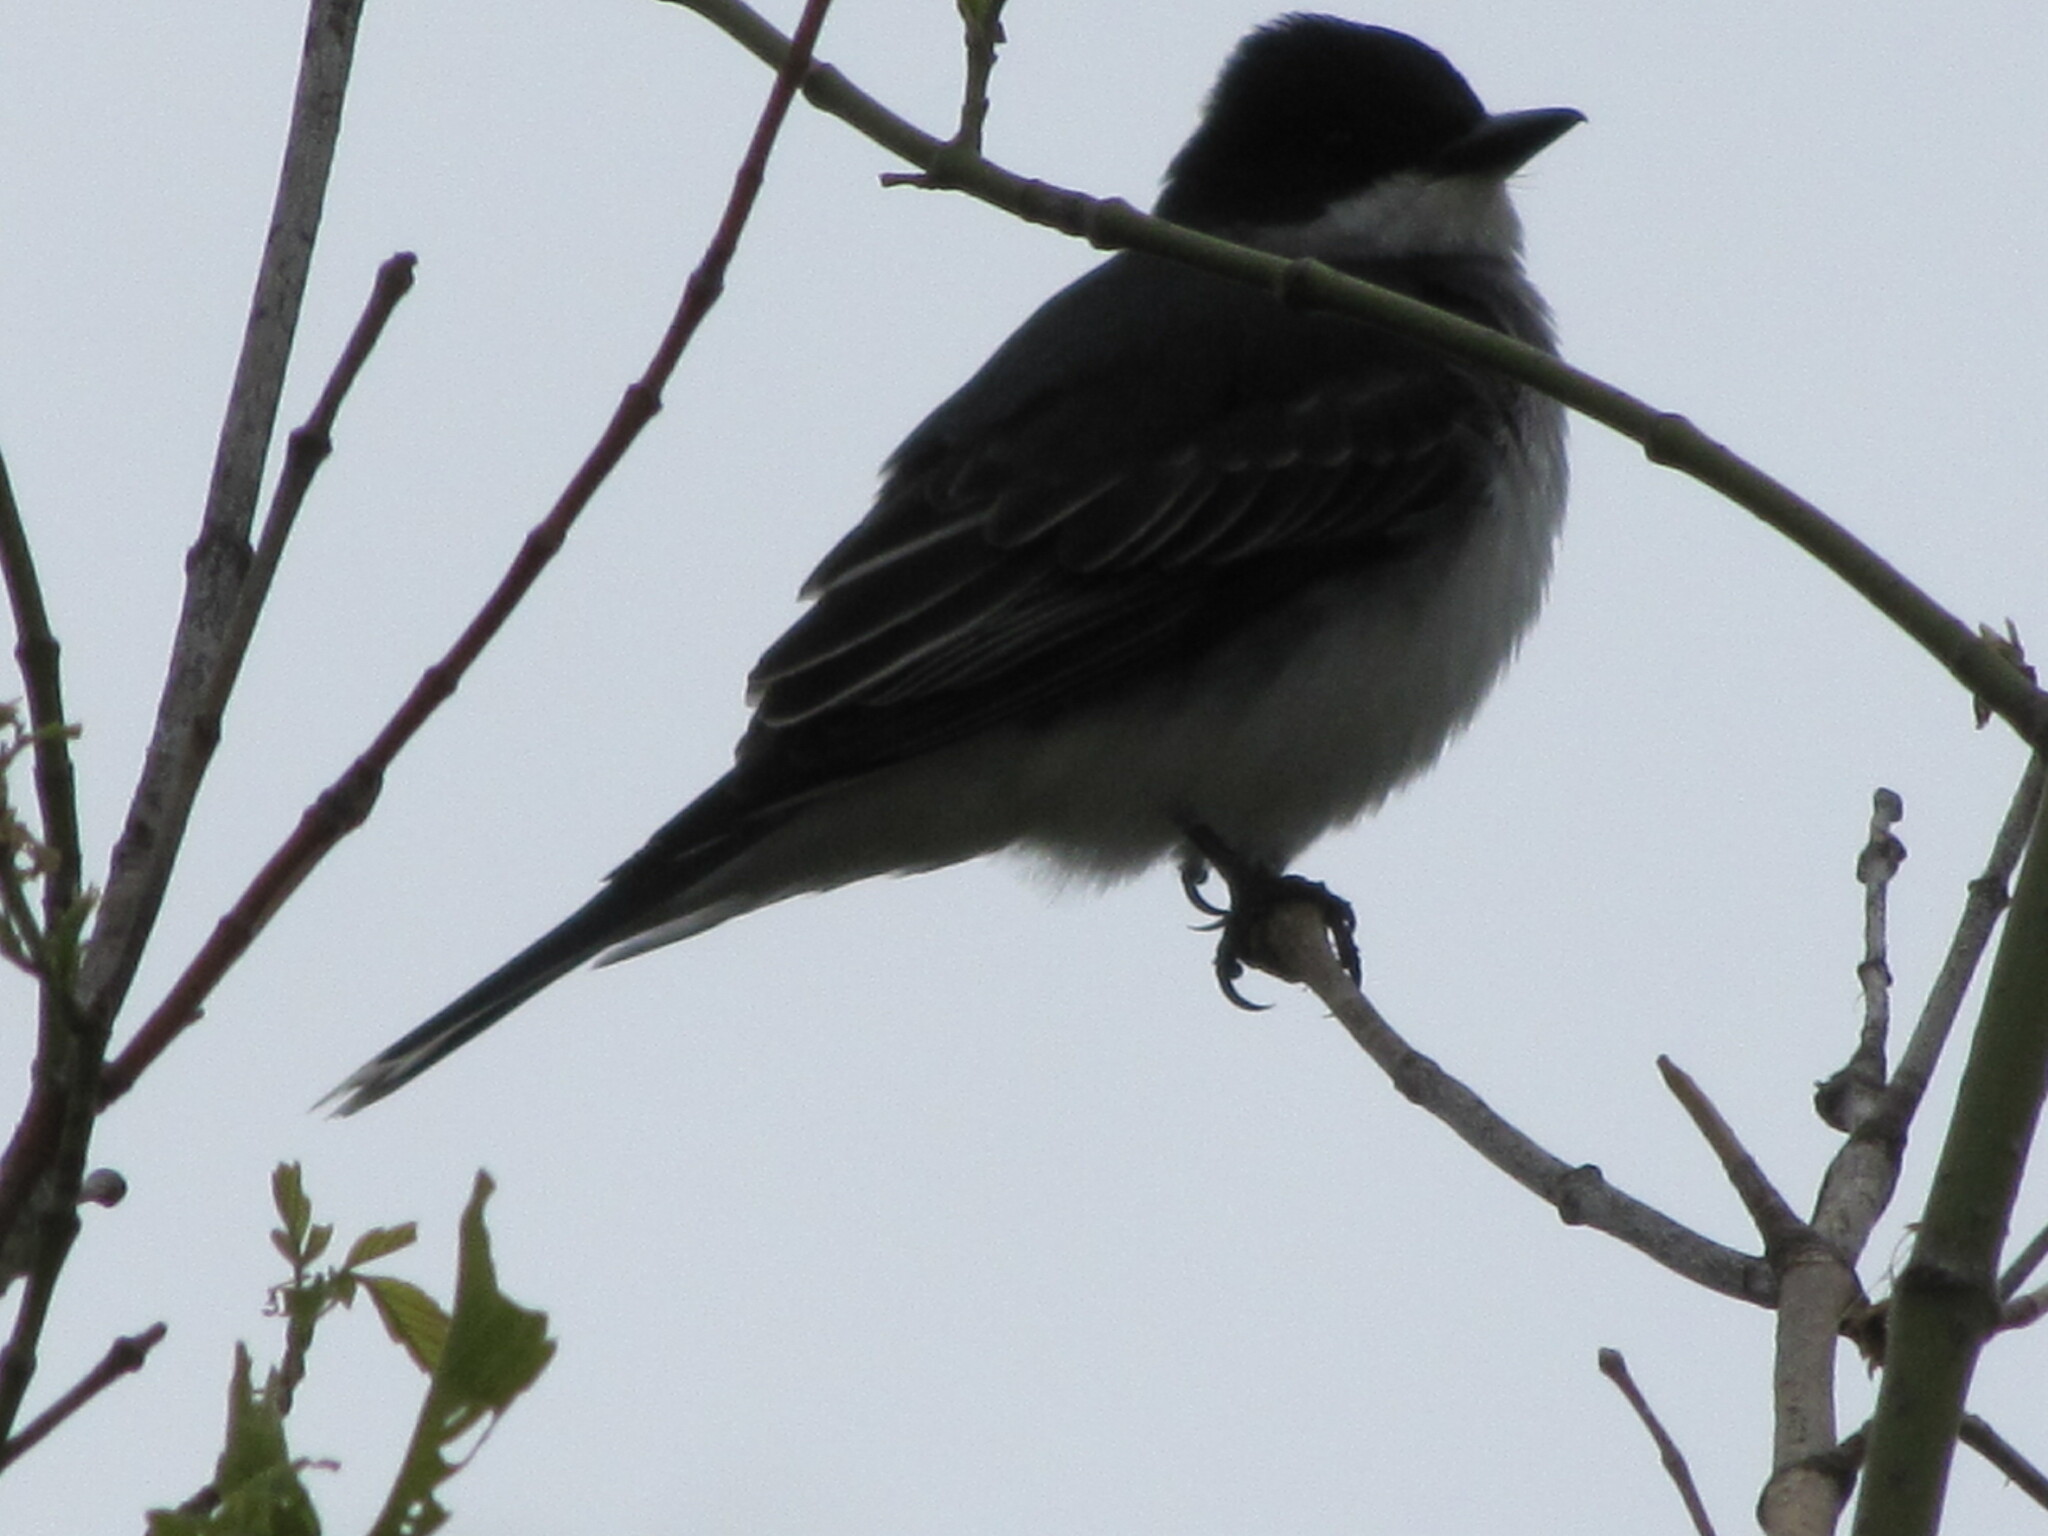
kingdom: Animalia
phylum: Chordata
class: Aves
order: Passeriformes
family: Tyrannidae
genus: Tyrannus
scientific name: Tyrannus tyrannus
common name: Eastern kingbird
